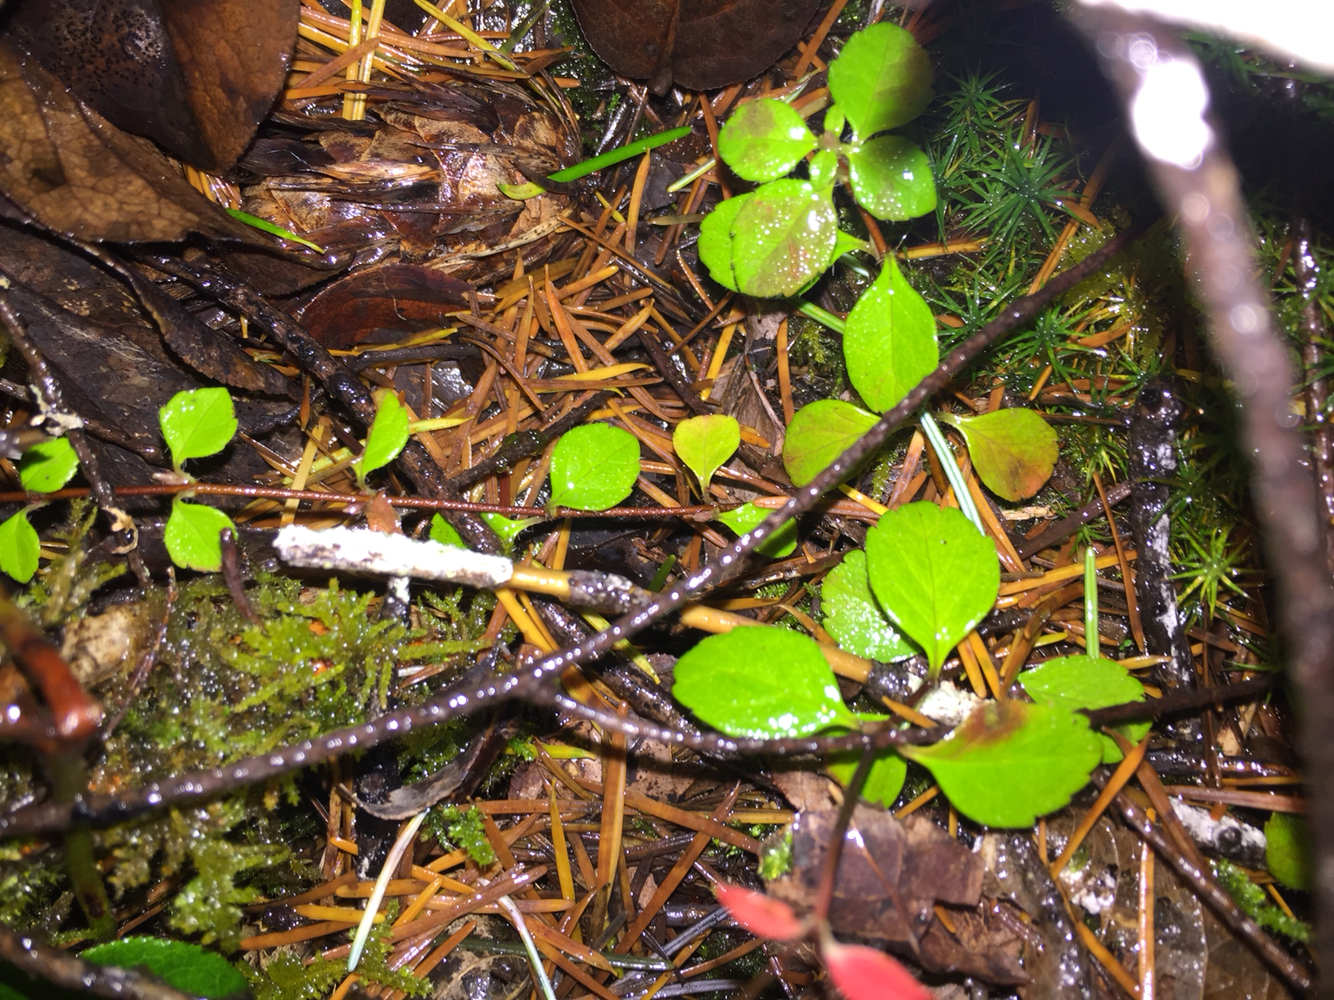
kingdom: Plantae
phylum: Tracheophyta
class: Magnoliopsida
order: Dipsacales
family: Caprifoliaceae
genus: Linnaea
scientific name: Linnaea borealis
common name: Twinflower
